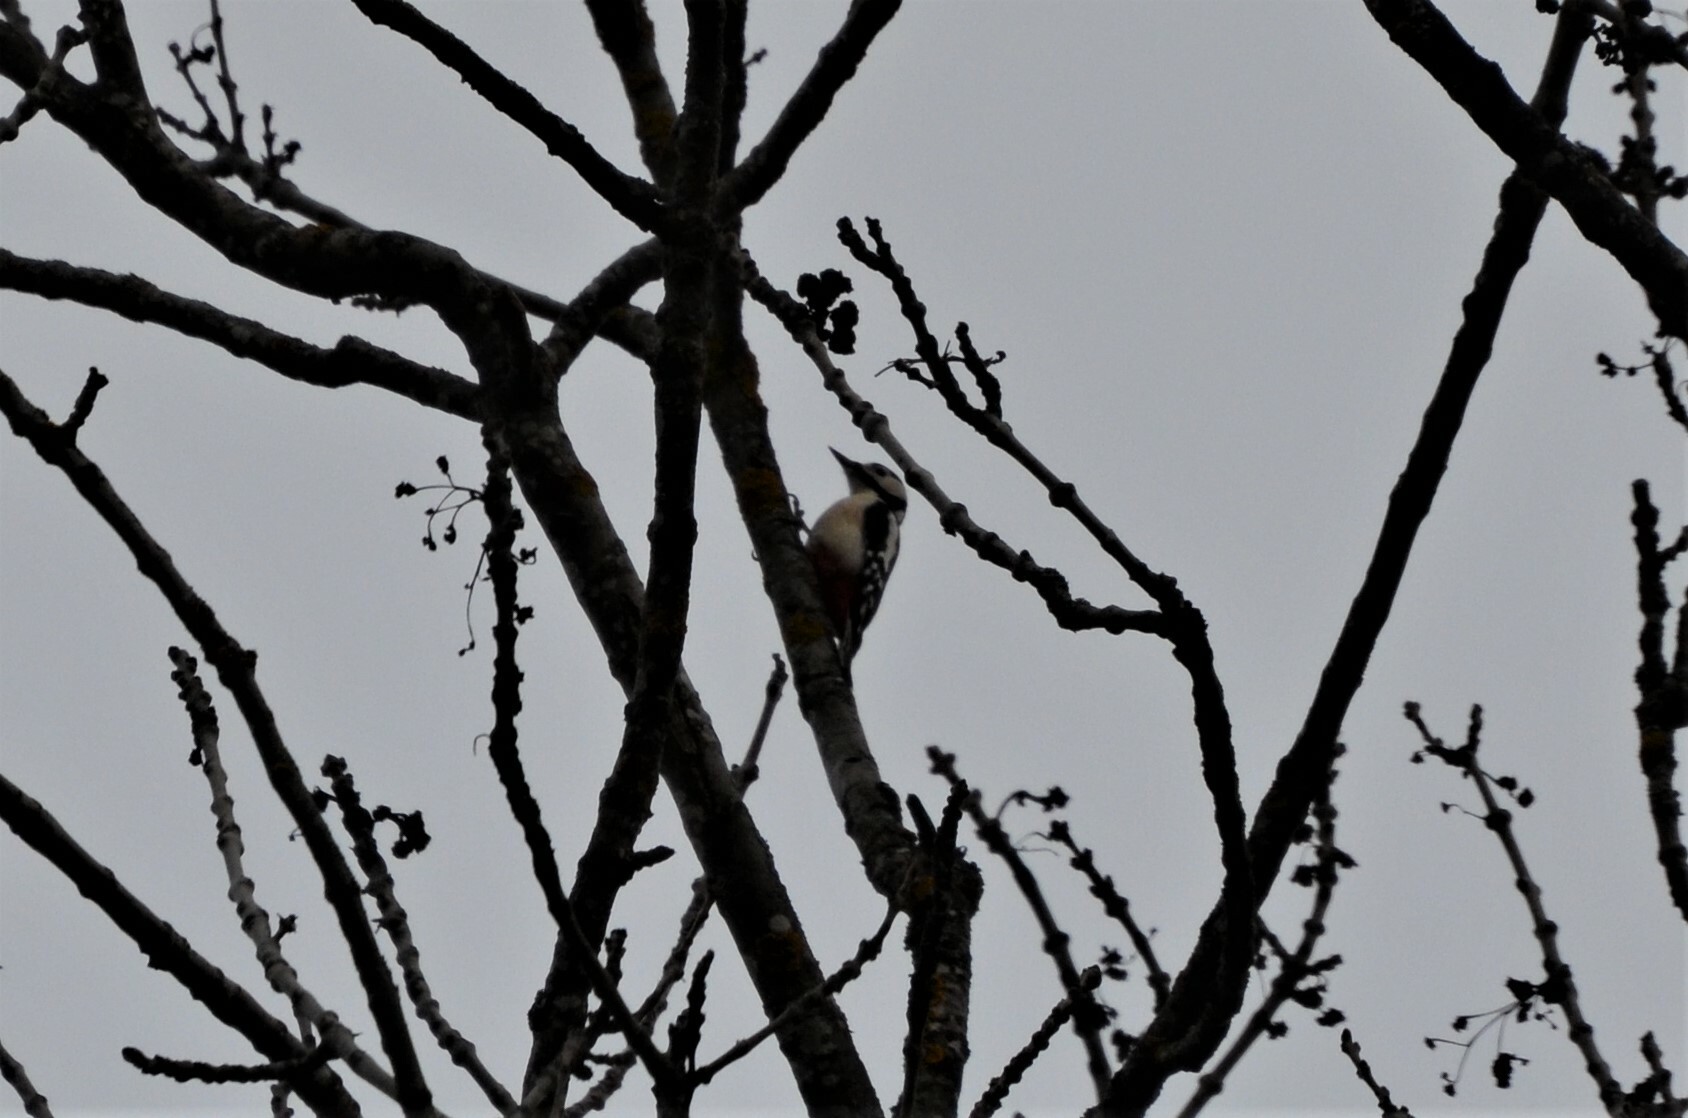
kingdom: Animalia
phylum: Chordata
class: Aves
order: Piciformes
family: Picidae
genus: Dendrocopos
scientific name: Dendrocopos major
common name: Great spotted woodpecker
